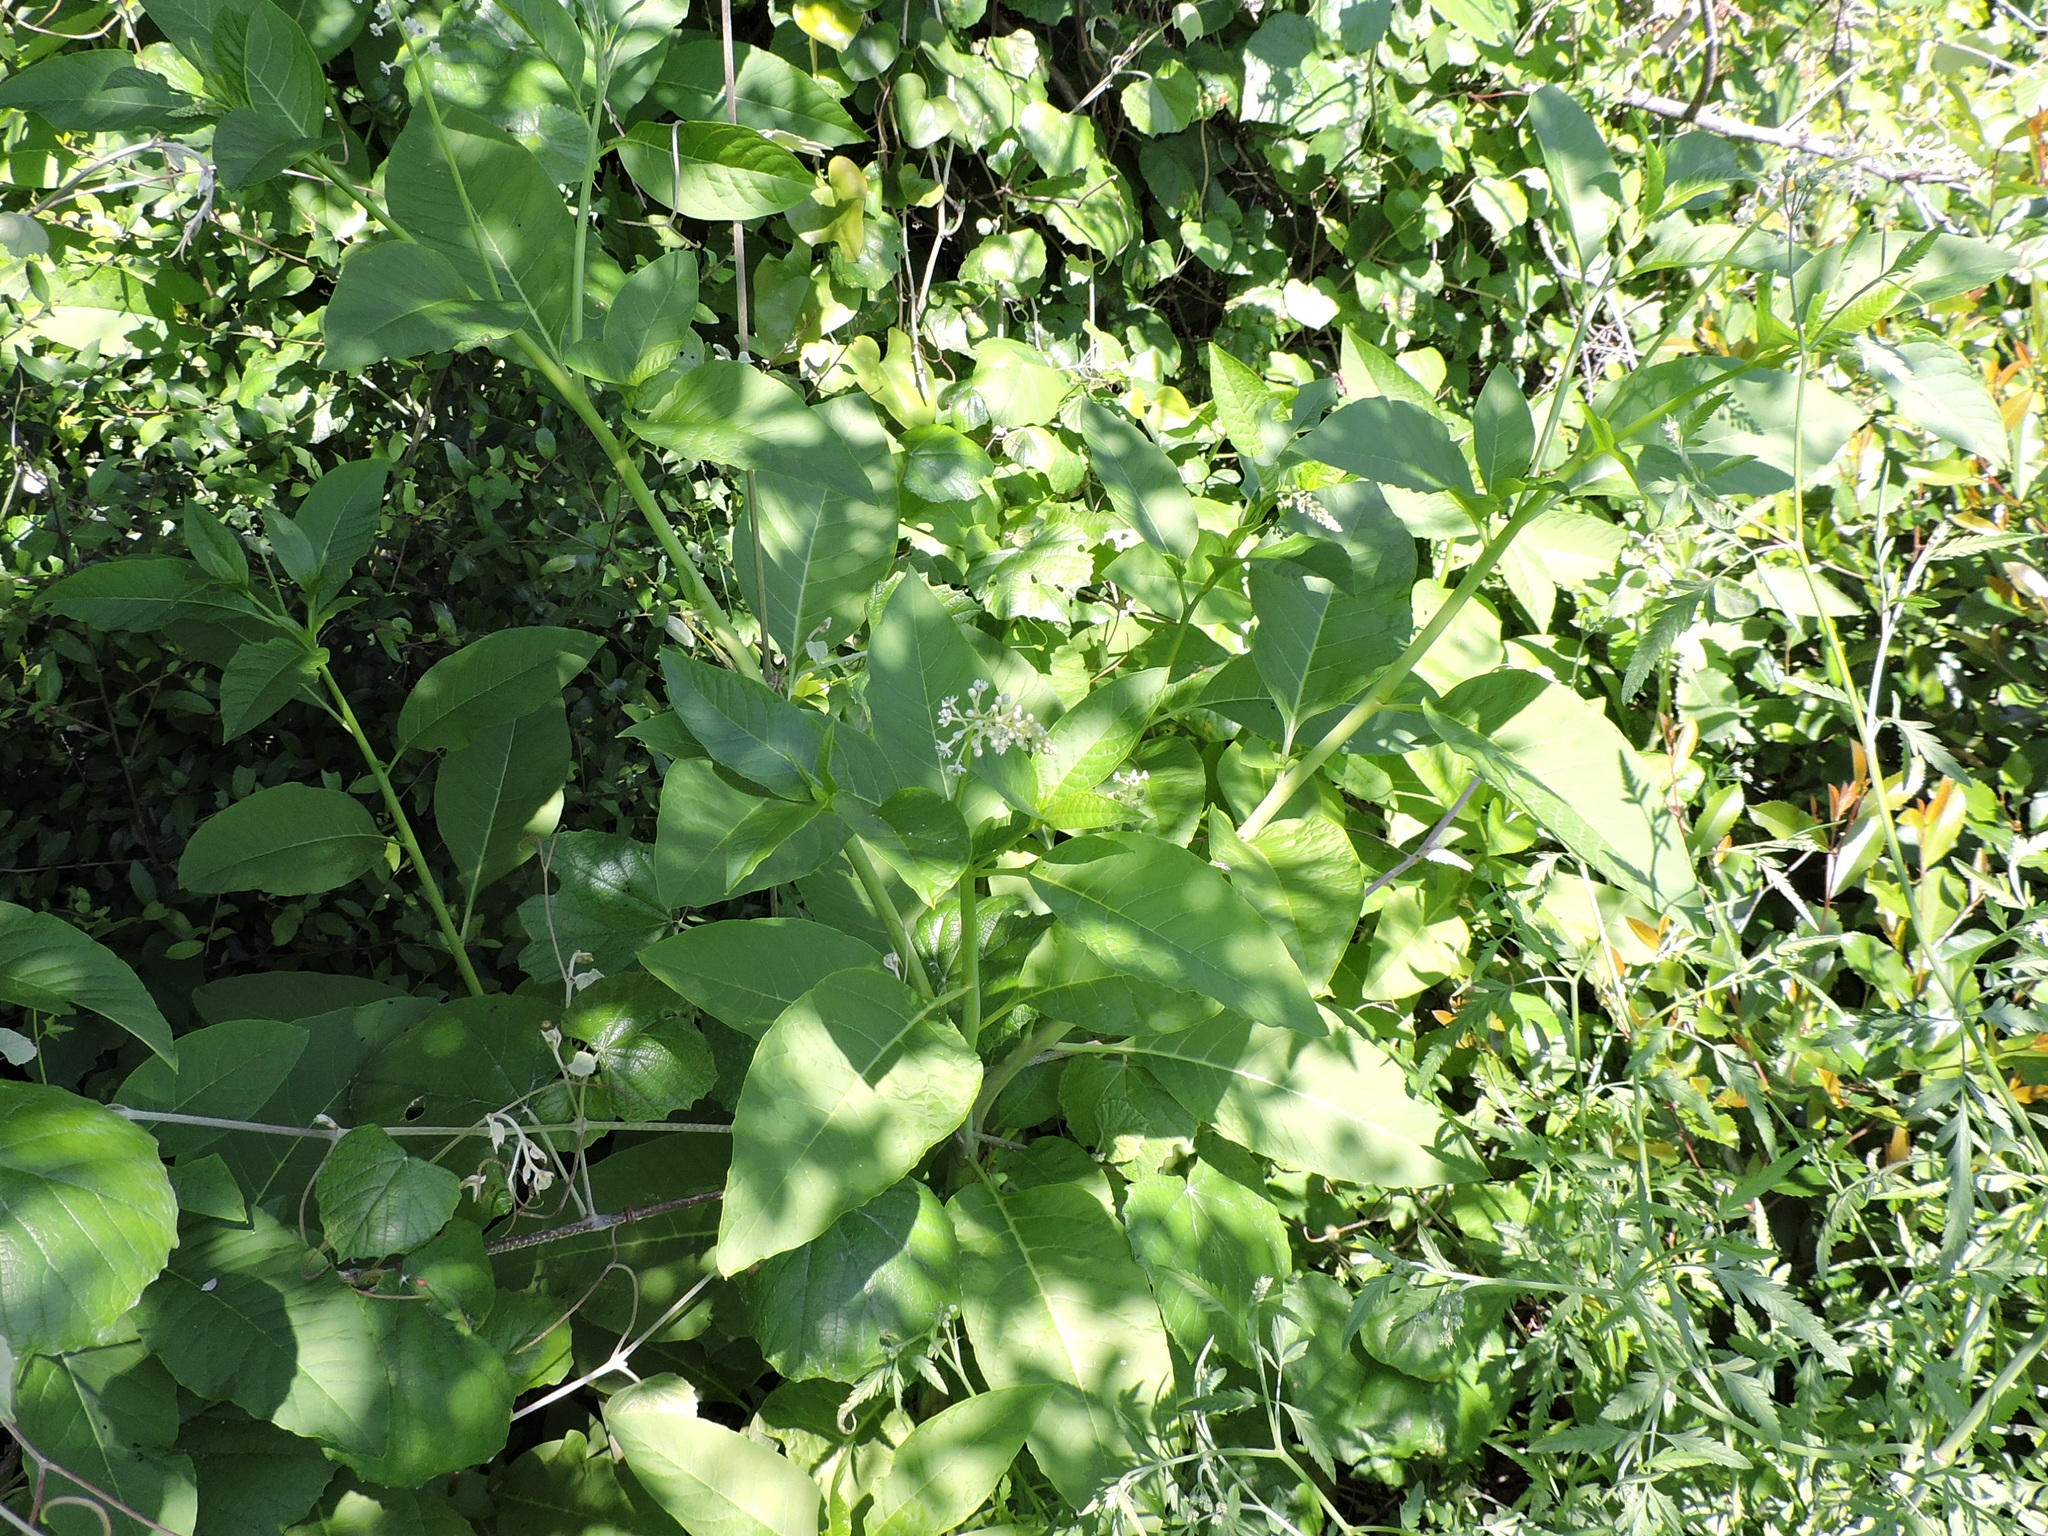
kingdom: Plantae
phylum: Tracheophyta
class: Magnoliopsida
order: Caryophyllales
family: Phytolaccaceae
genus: Phytolacca
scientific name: Phytolacca americana
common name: American pokeweed
